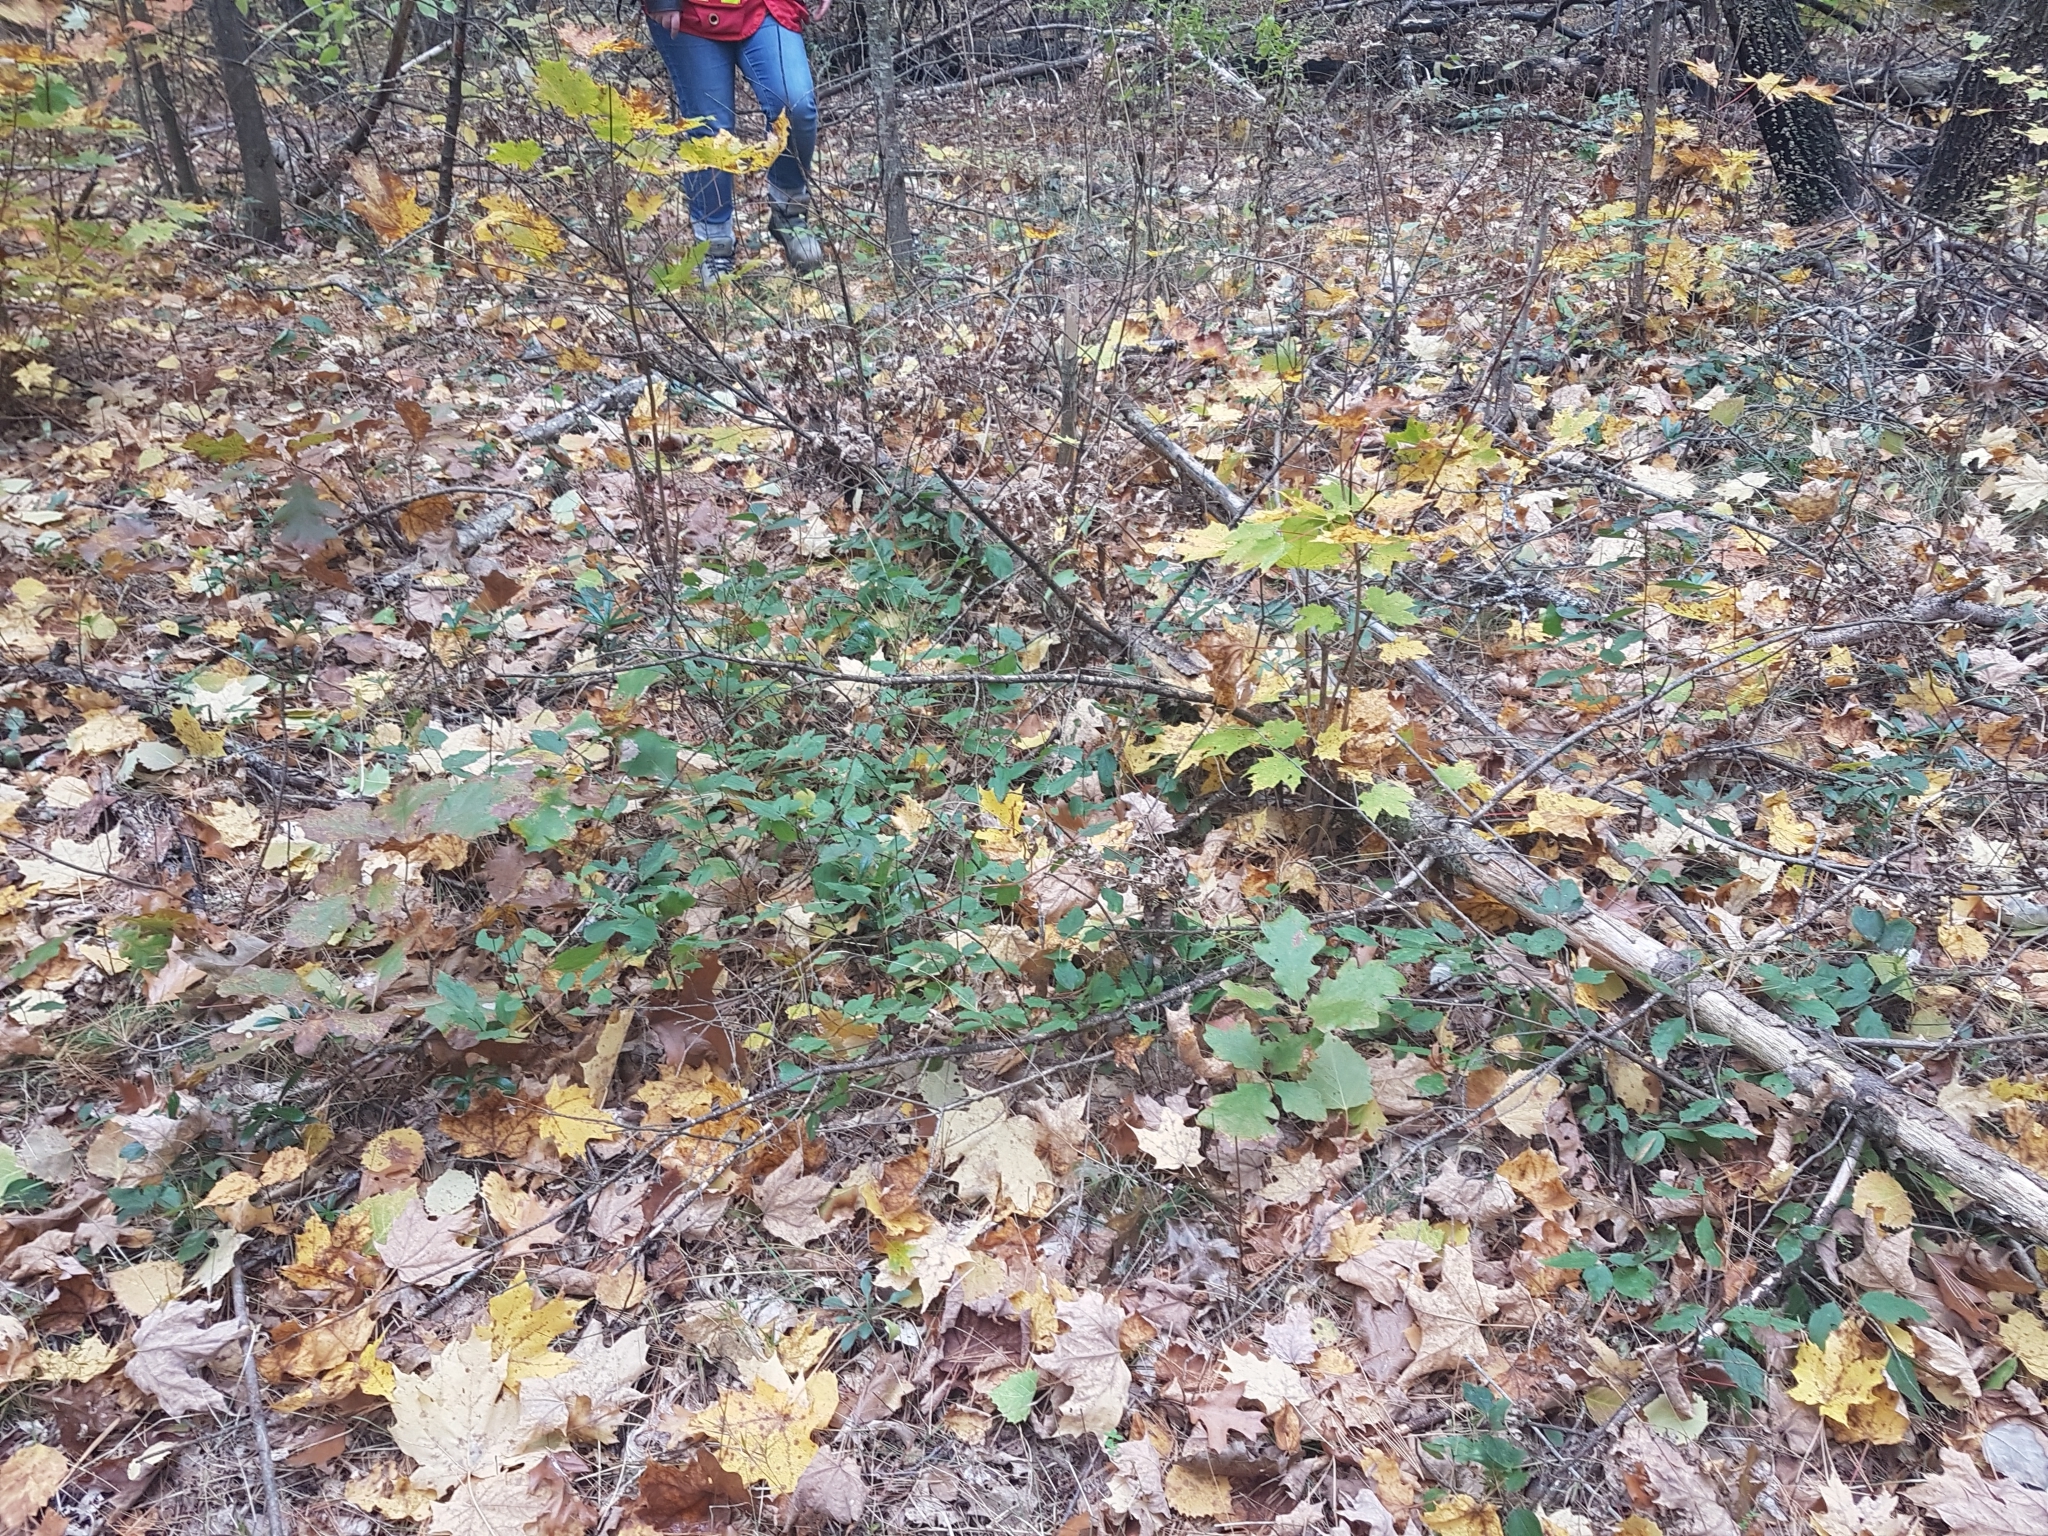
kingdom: Plantae
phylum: Tracheophyta
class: Magnoliopsida
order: Rosales
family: Rhamnaceae
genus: Ceanothus
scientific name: Ceanothus americanus
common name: Redroot
